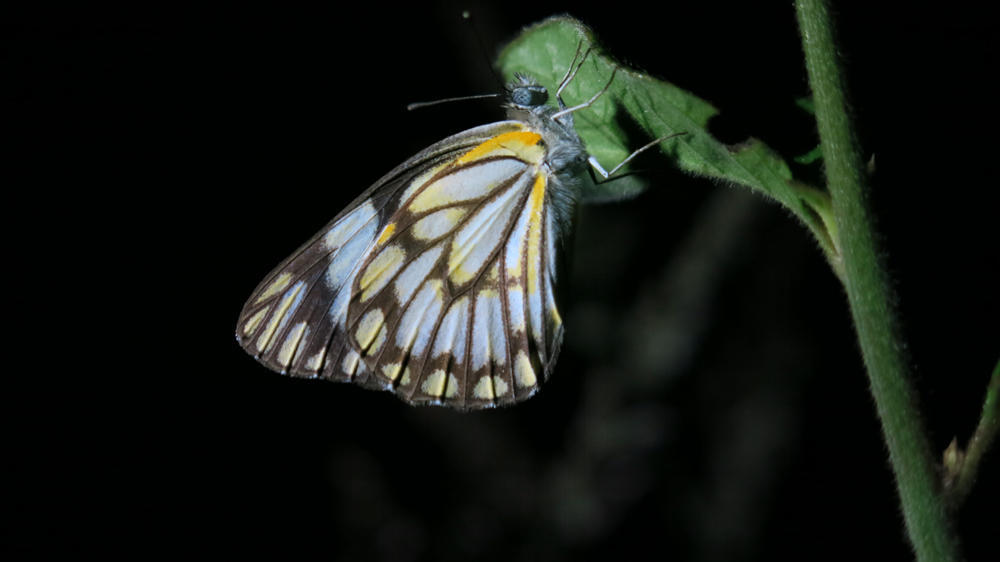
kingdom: Animalia
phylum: Arthropoda
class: Insecta
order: Lepidoptera
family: Pieridae
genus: Belenois
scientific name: Belenois aurota
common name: Brown-veined white
